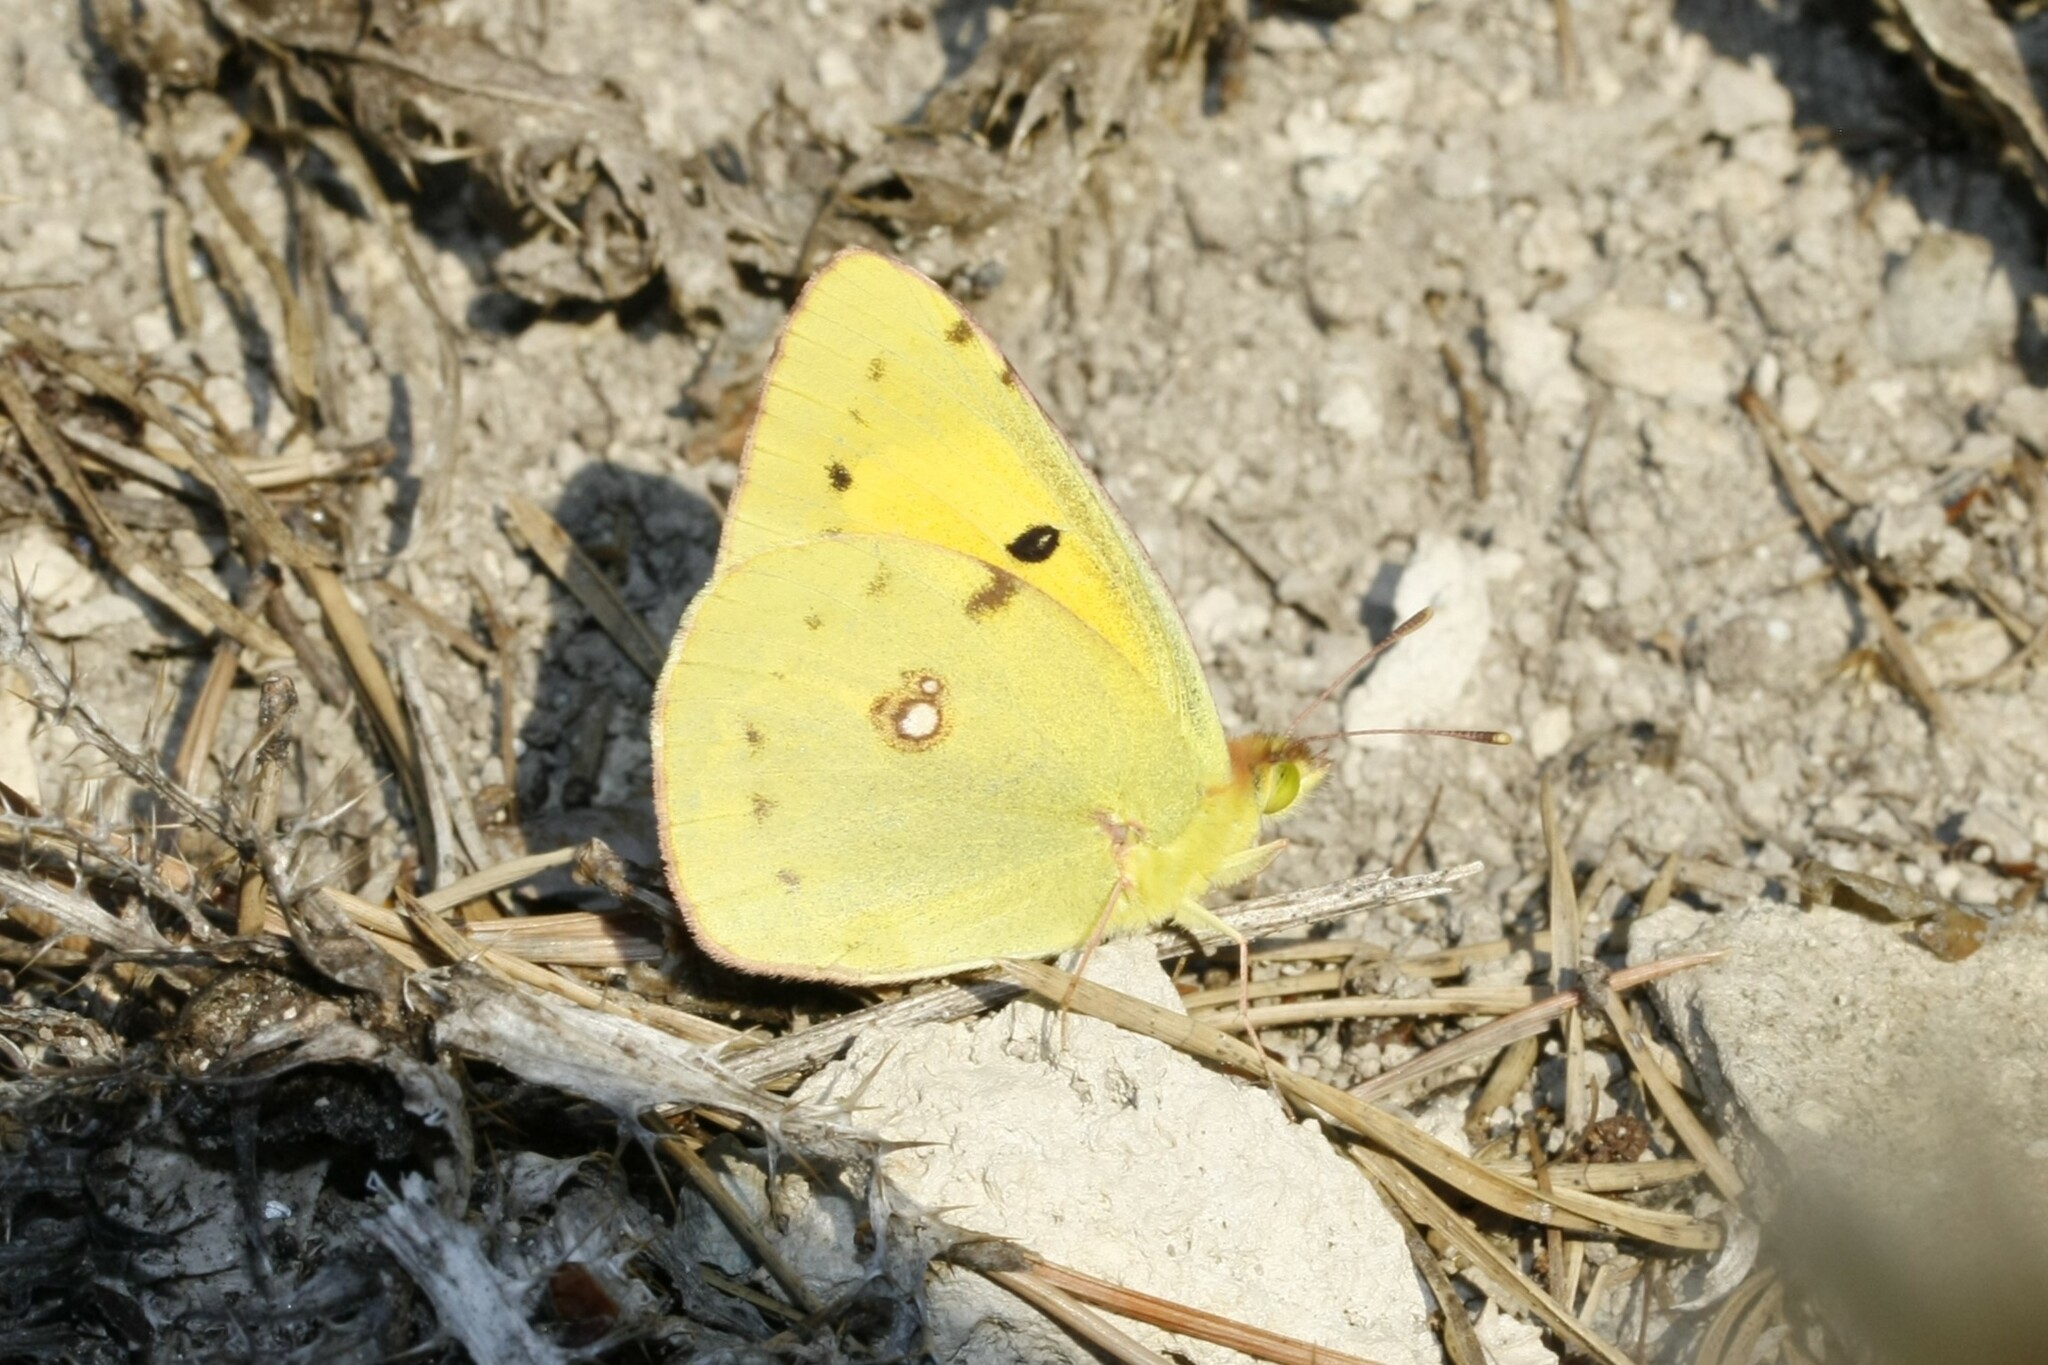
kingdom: Animalia
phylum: Arthropoda
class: Insecta
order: Lepidoptera
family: Pieridae
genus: Colias
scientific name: Colias croceus
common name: Clouded yellow
